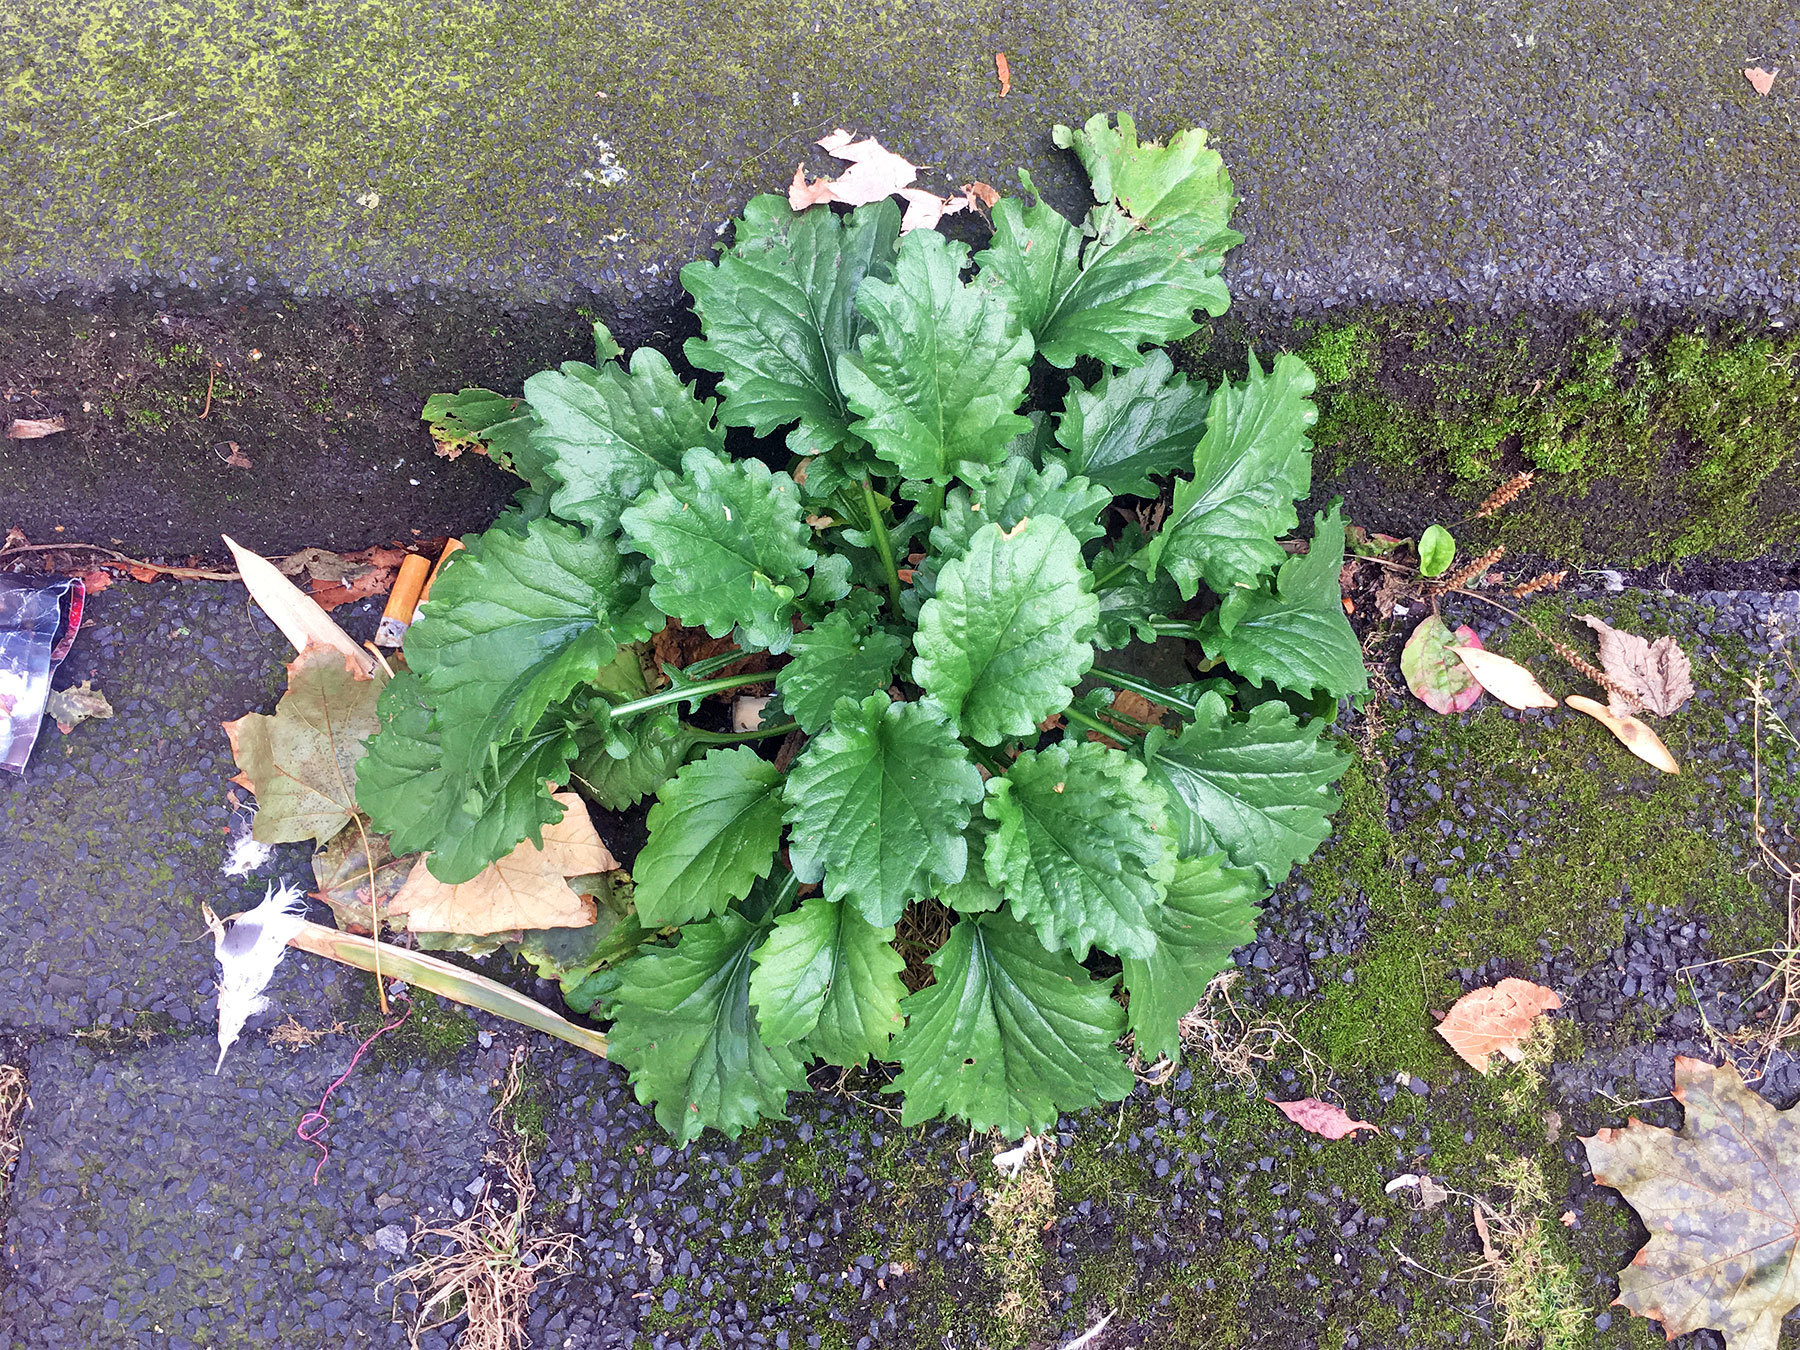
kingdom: Plantae
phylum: Tracheophyta
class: Magnoliopsida
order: Asterales
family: Asteraceae
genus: Jacobaea
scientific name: Jacobaea vulgaris
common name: Stinking willie
